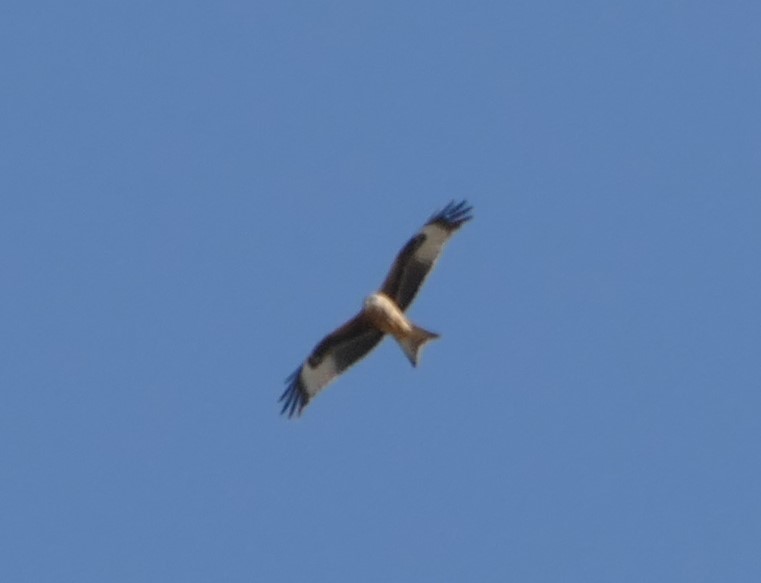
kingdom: Animalia
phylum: Chordata
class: Aves
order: Accipitriformes
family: Accipitridae
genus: Milvus
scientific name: Milvus milvus
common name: Red kite
